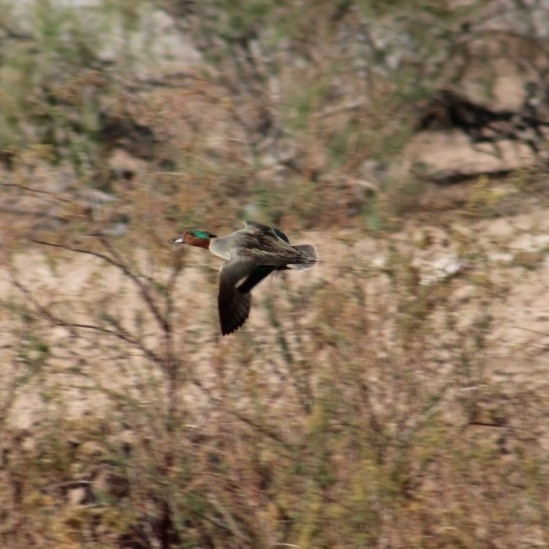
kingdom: Animalia
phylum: Chordata
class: Aves
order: Anseriformes
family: Anatidae
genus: Anas
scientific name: Anas crecca
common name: Eurasian teal
